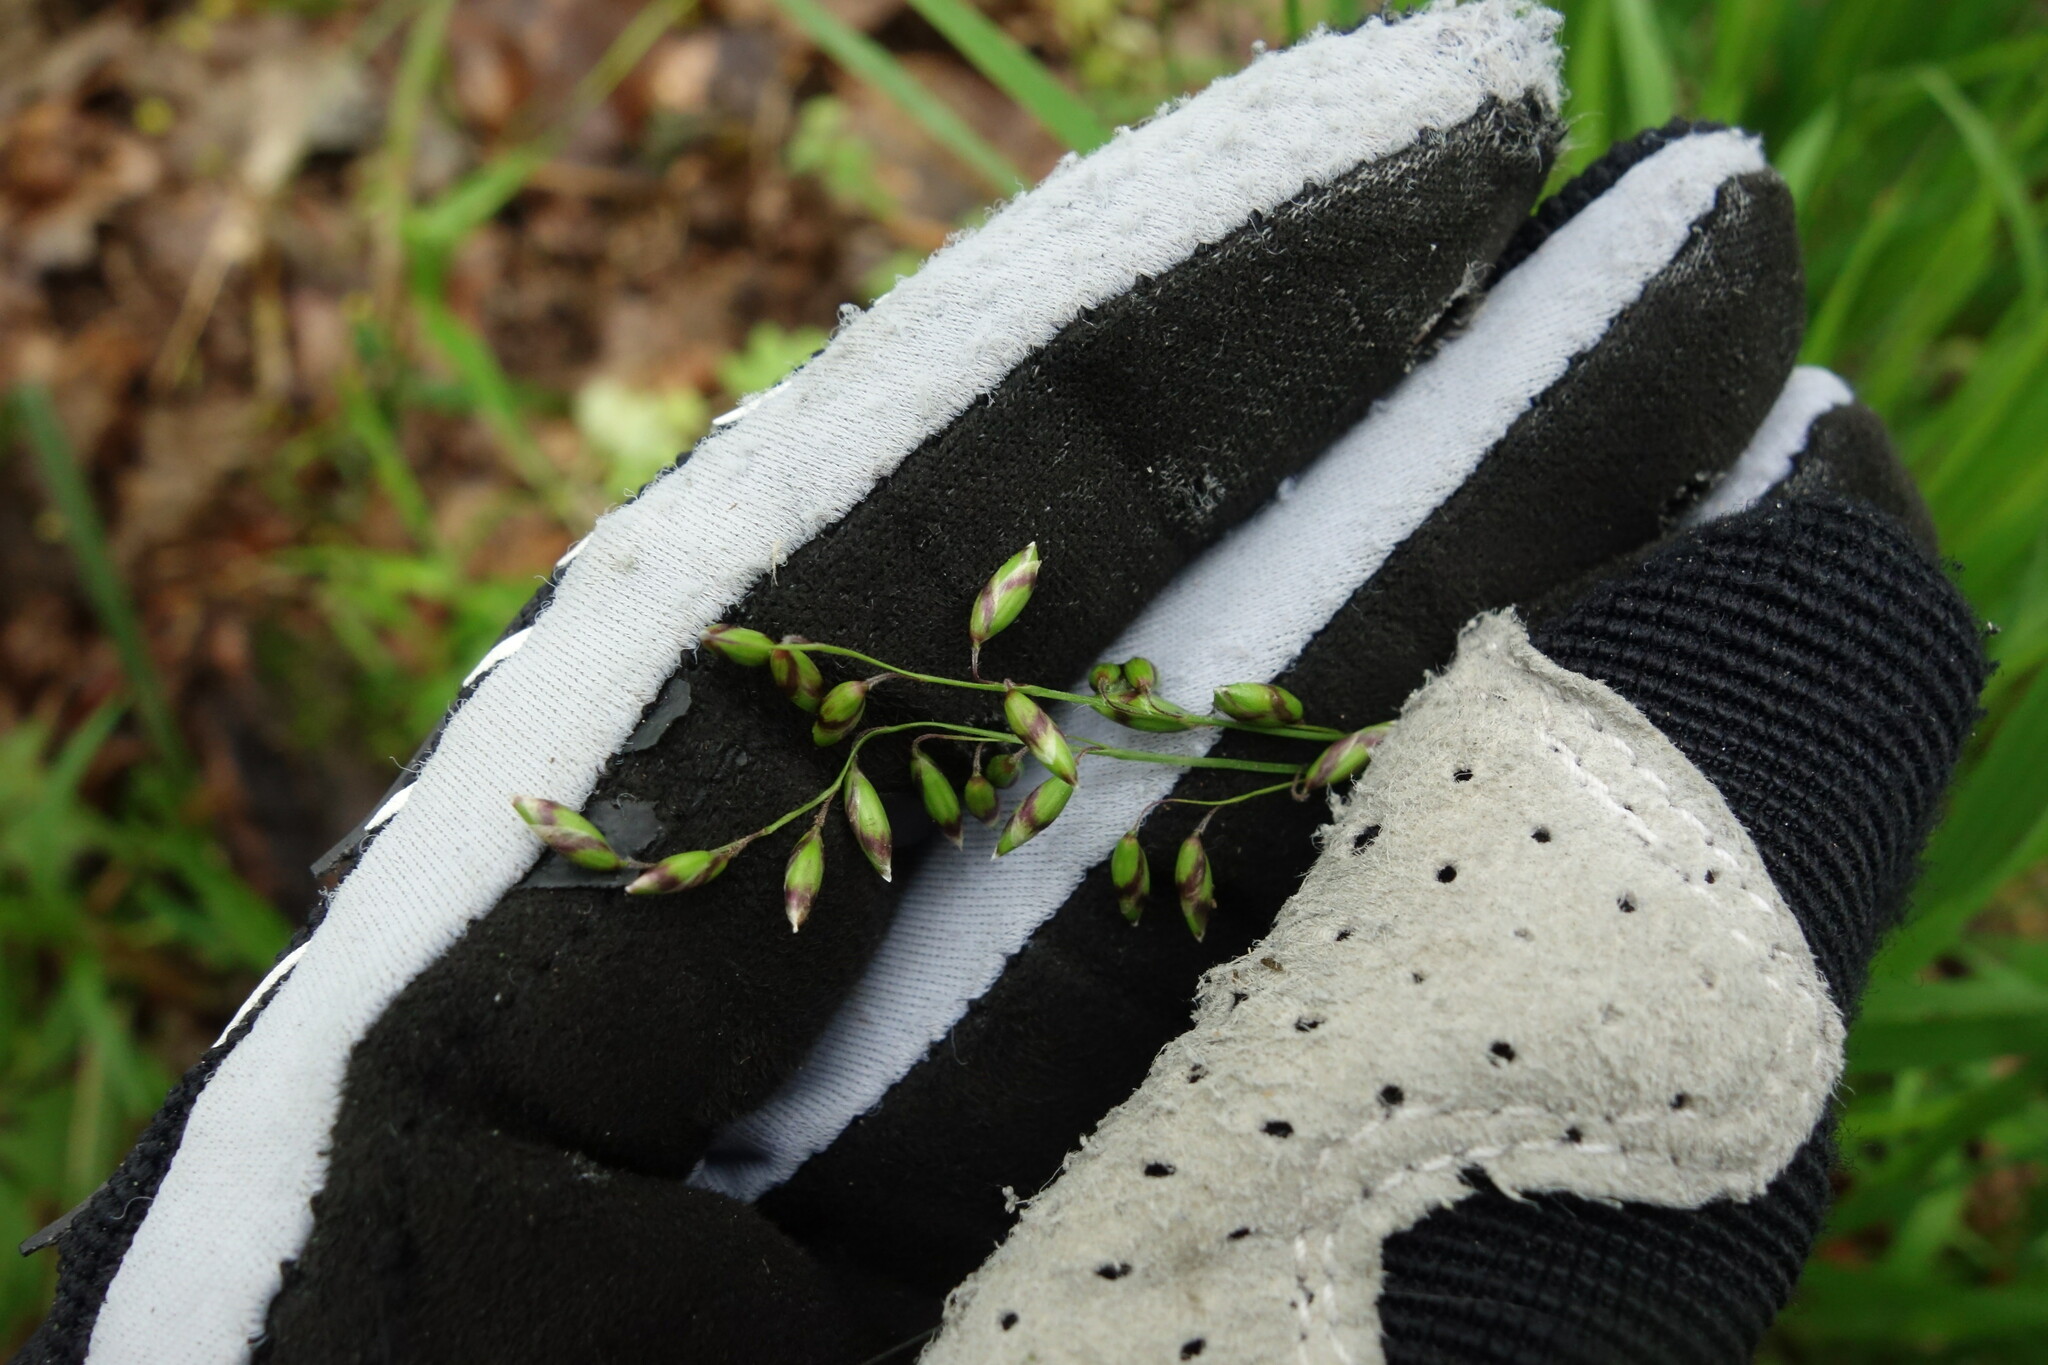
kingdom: Plantae
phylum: Tracheophyta
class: Liliopsida
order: Poales
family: Poaceae
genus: Melica
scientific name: Melica picta
